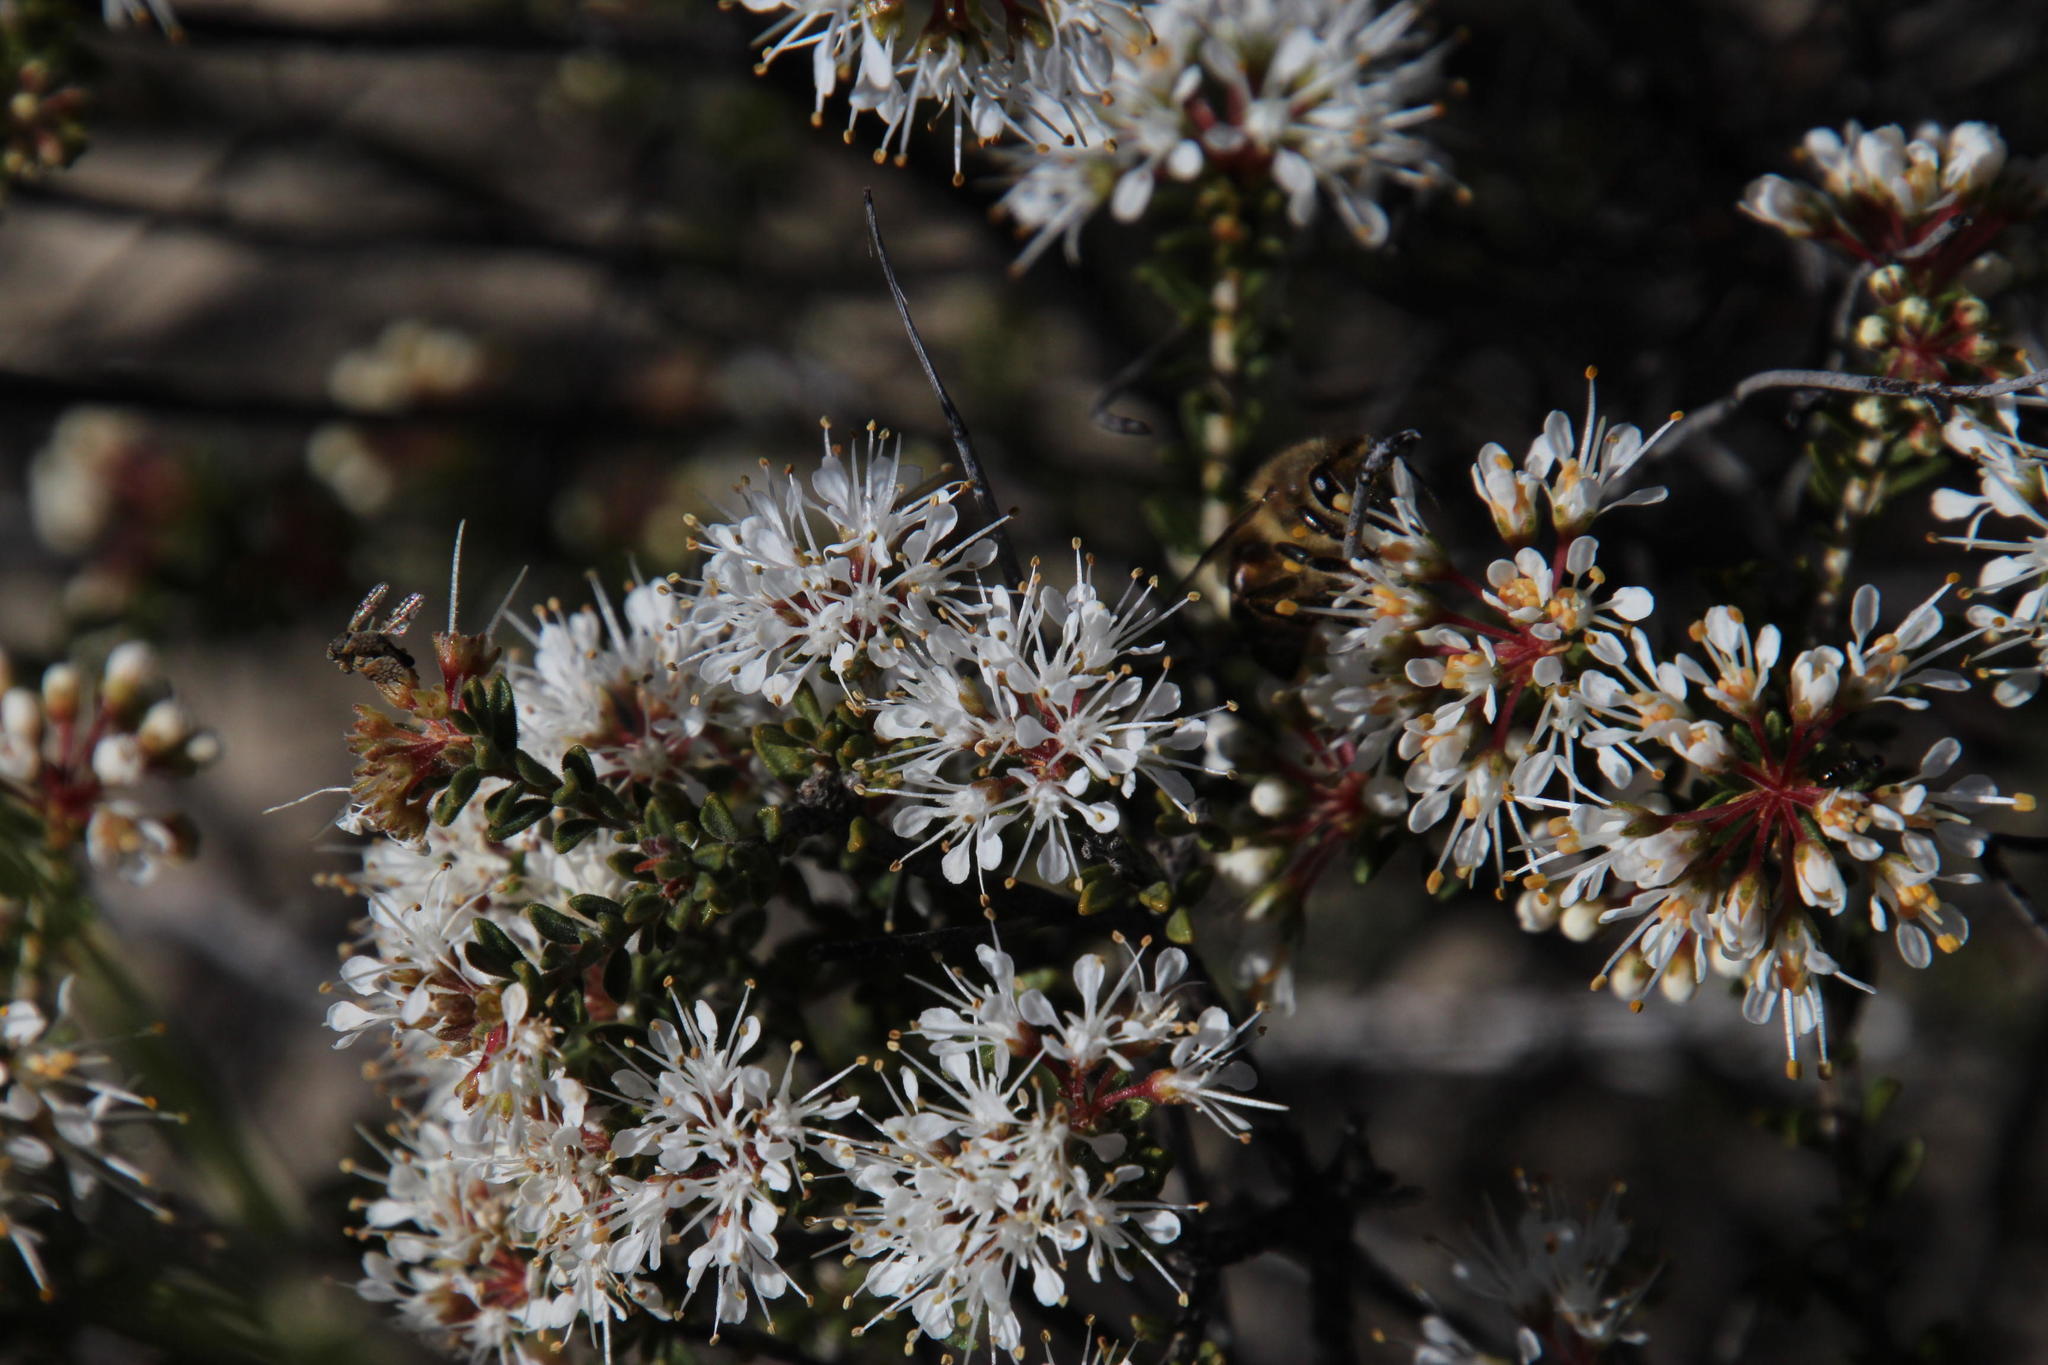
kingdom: Animalia
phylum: Arthropoda
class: Insecta
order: Hymenoptera
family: Apidae
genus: Apis
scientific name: Apis mellifera
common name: Honey bee
